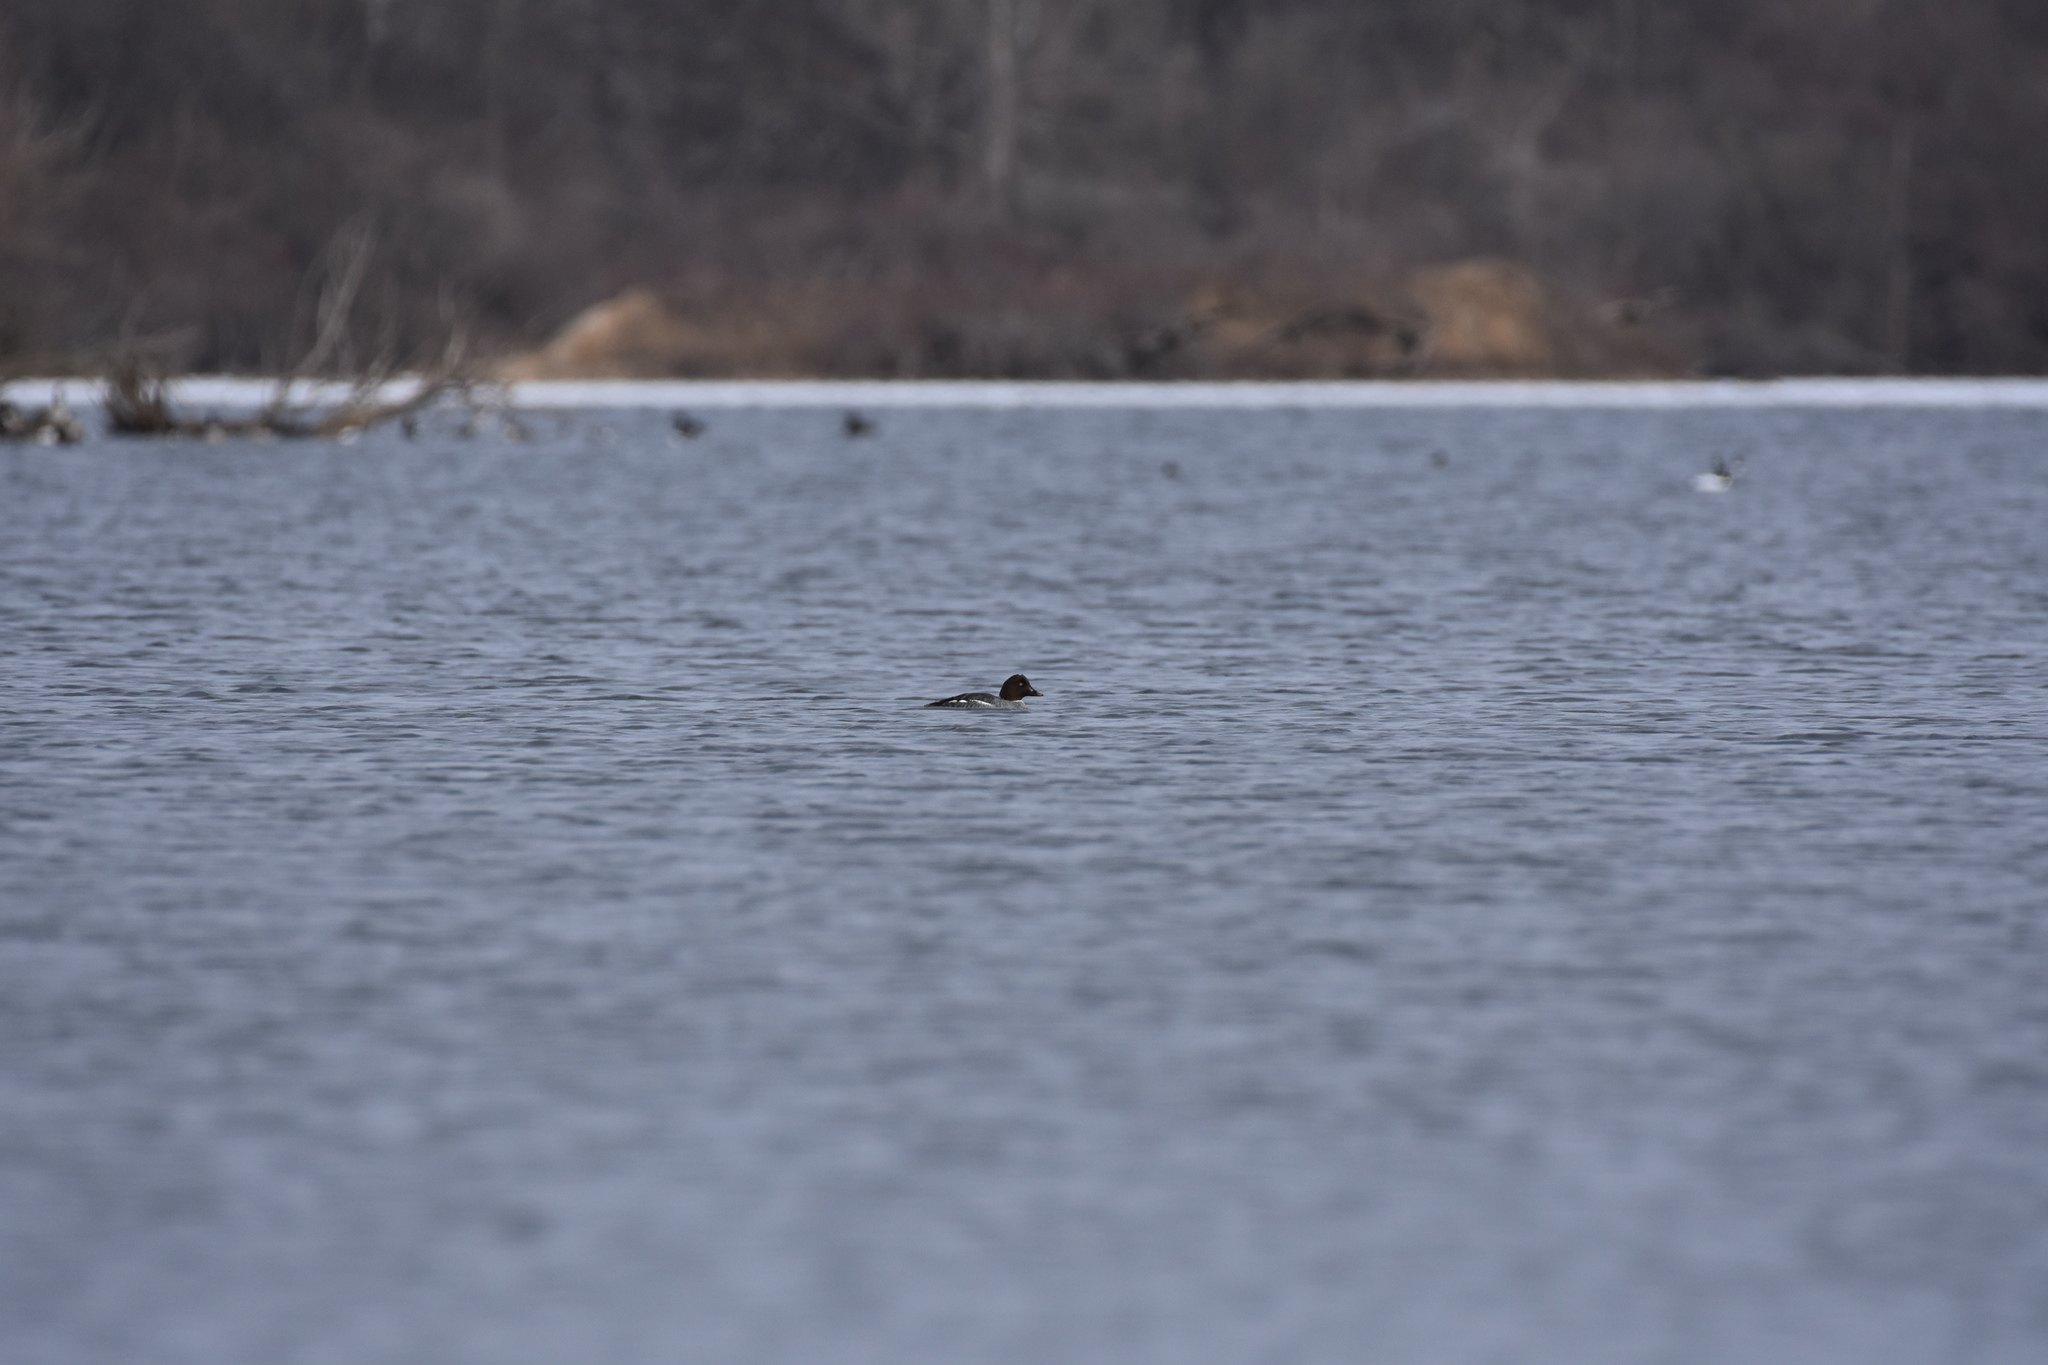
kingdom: Animalia
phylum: Chordata
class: Aves
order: Anseriformes
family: Anatidae
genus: Bucephala
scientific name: Bucephala clangula
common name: Common goldeneye
